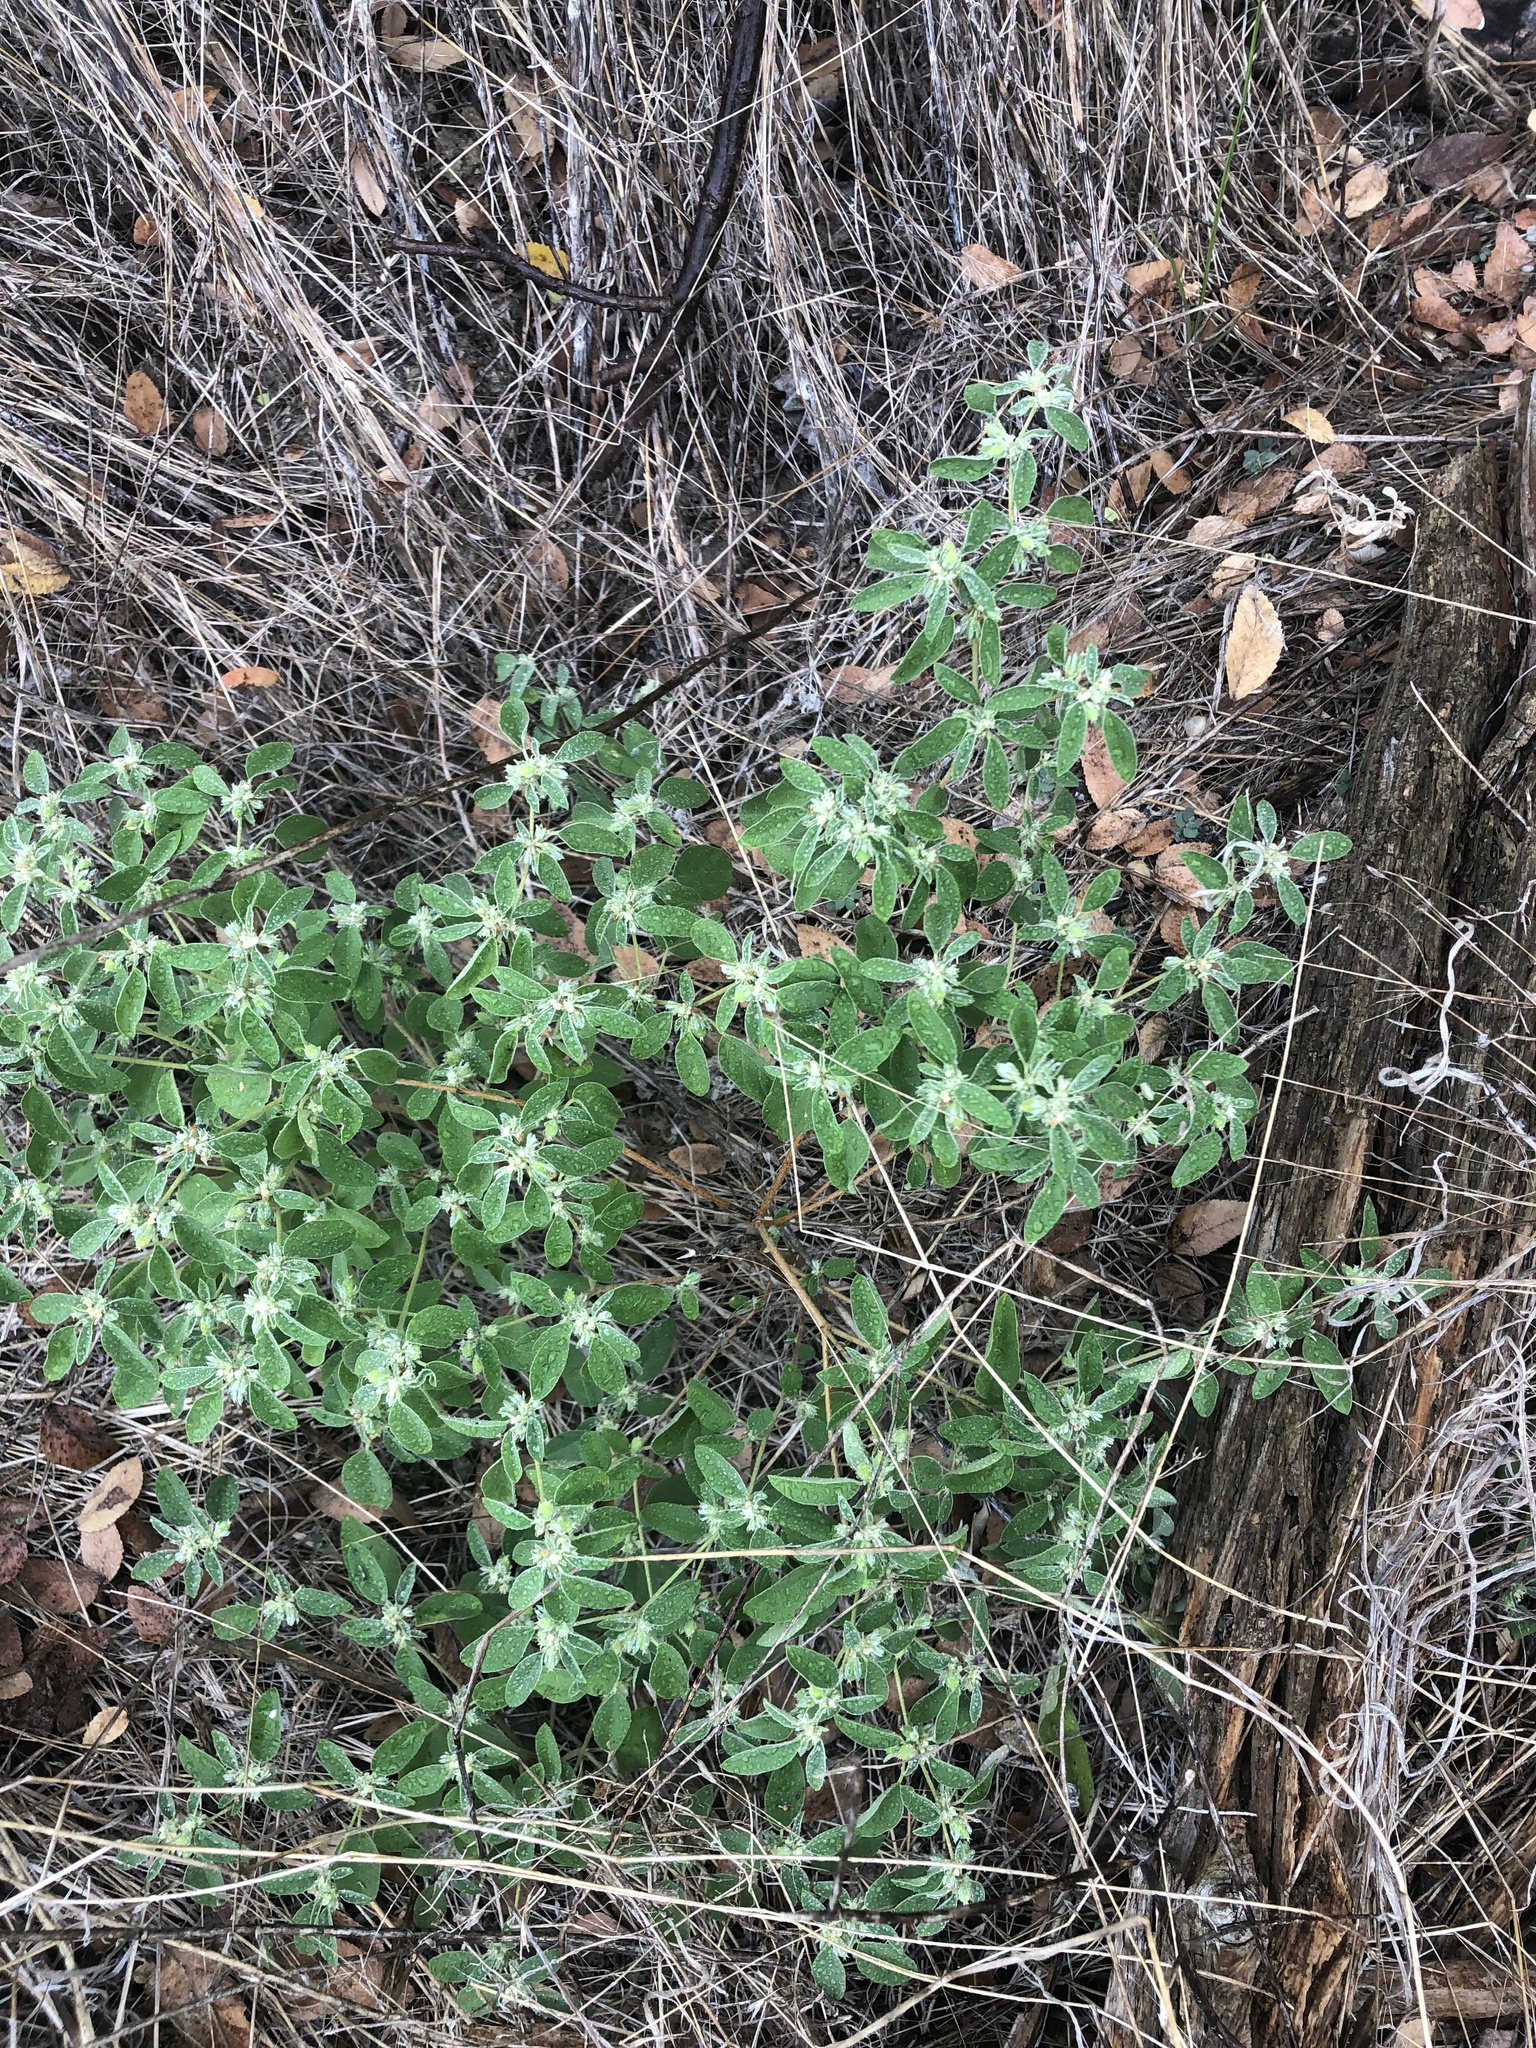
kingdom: Plantae
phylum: Tracheophyta
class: Magnoliopsida
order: Malpighiales
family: Euphorbiaceae
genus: Croton
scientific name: Croton monanthogynus
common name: One-seed croton
